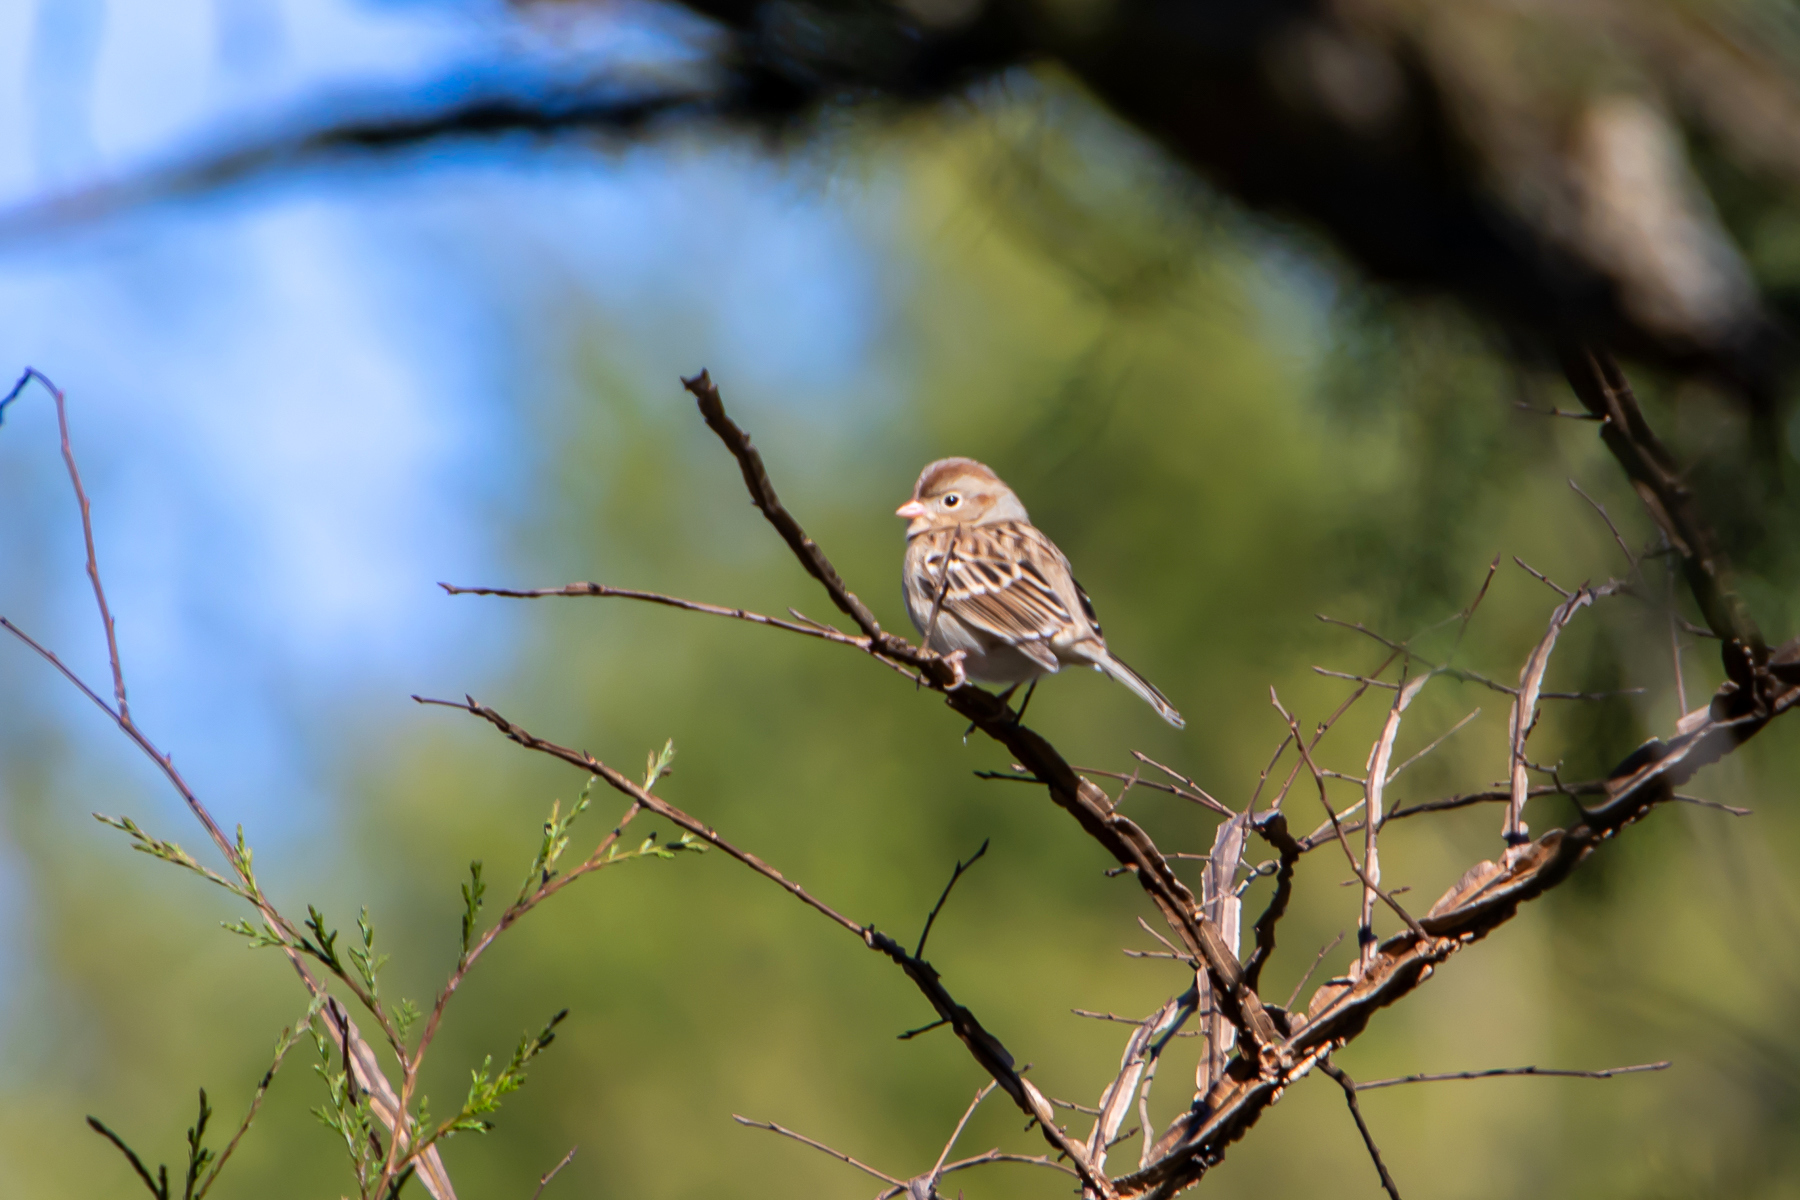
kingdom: Animalia
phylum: Chordata
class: Aves
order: Passeriformes
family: Passerellidae
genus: Spizella
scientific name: Spizella pusilla
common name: Field sparrow
